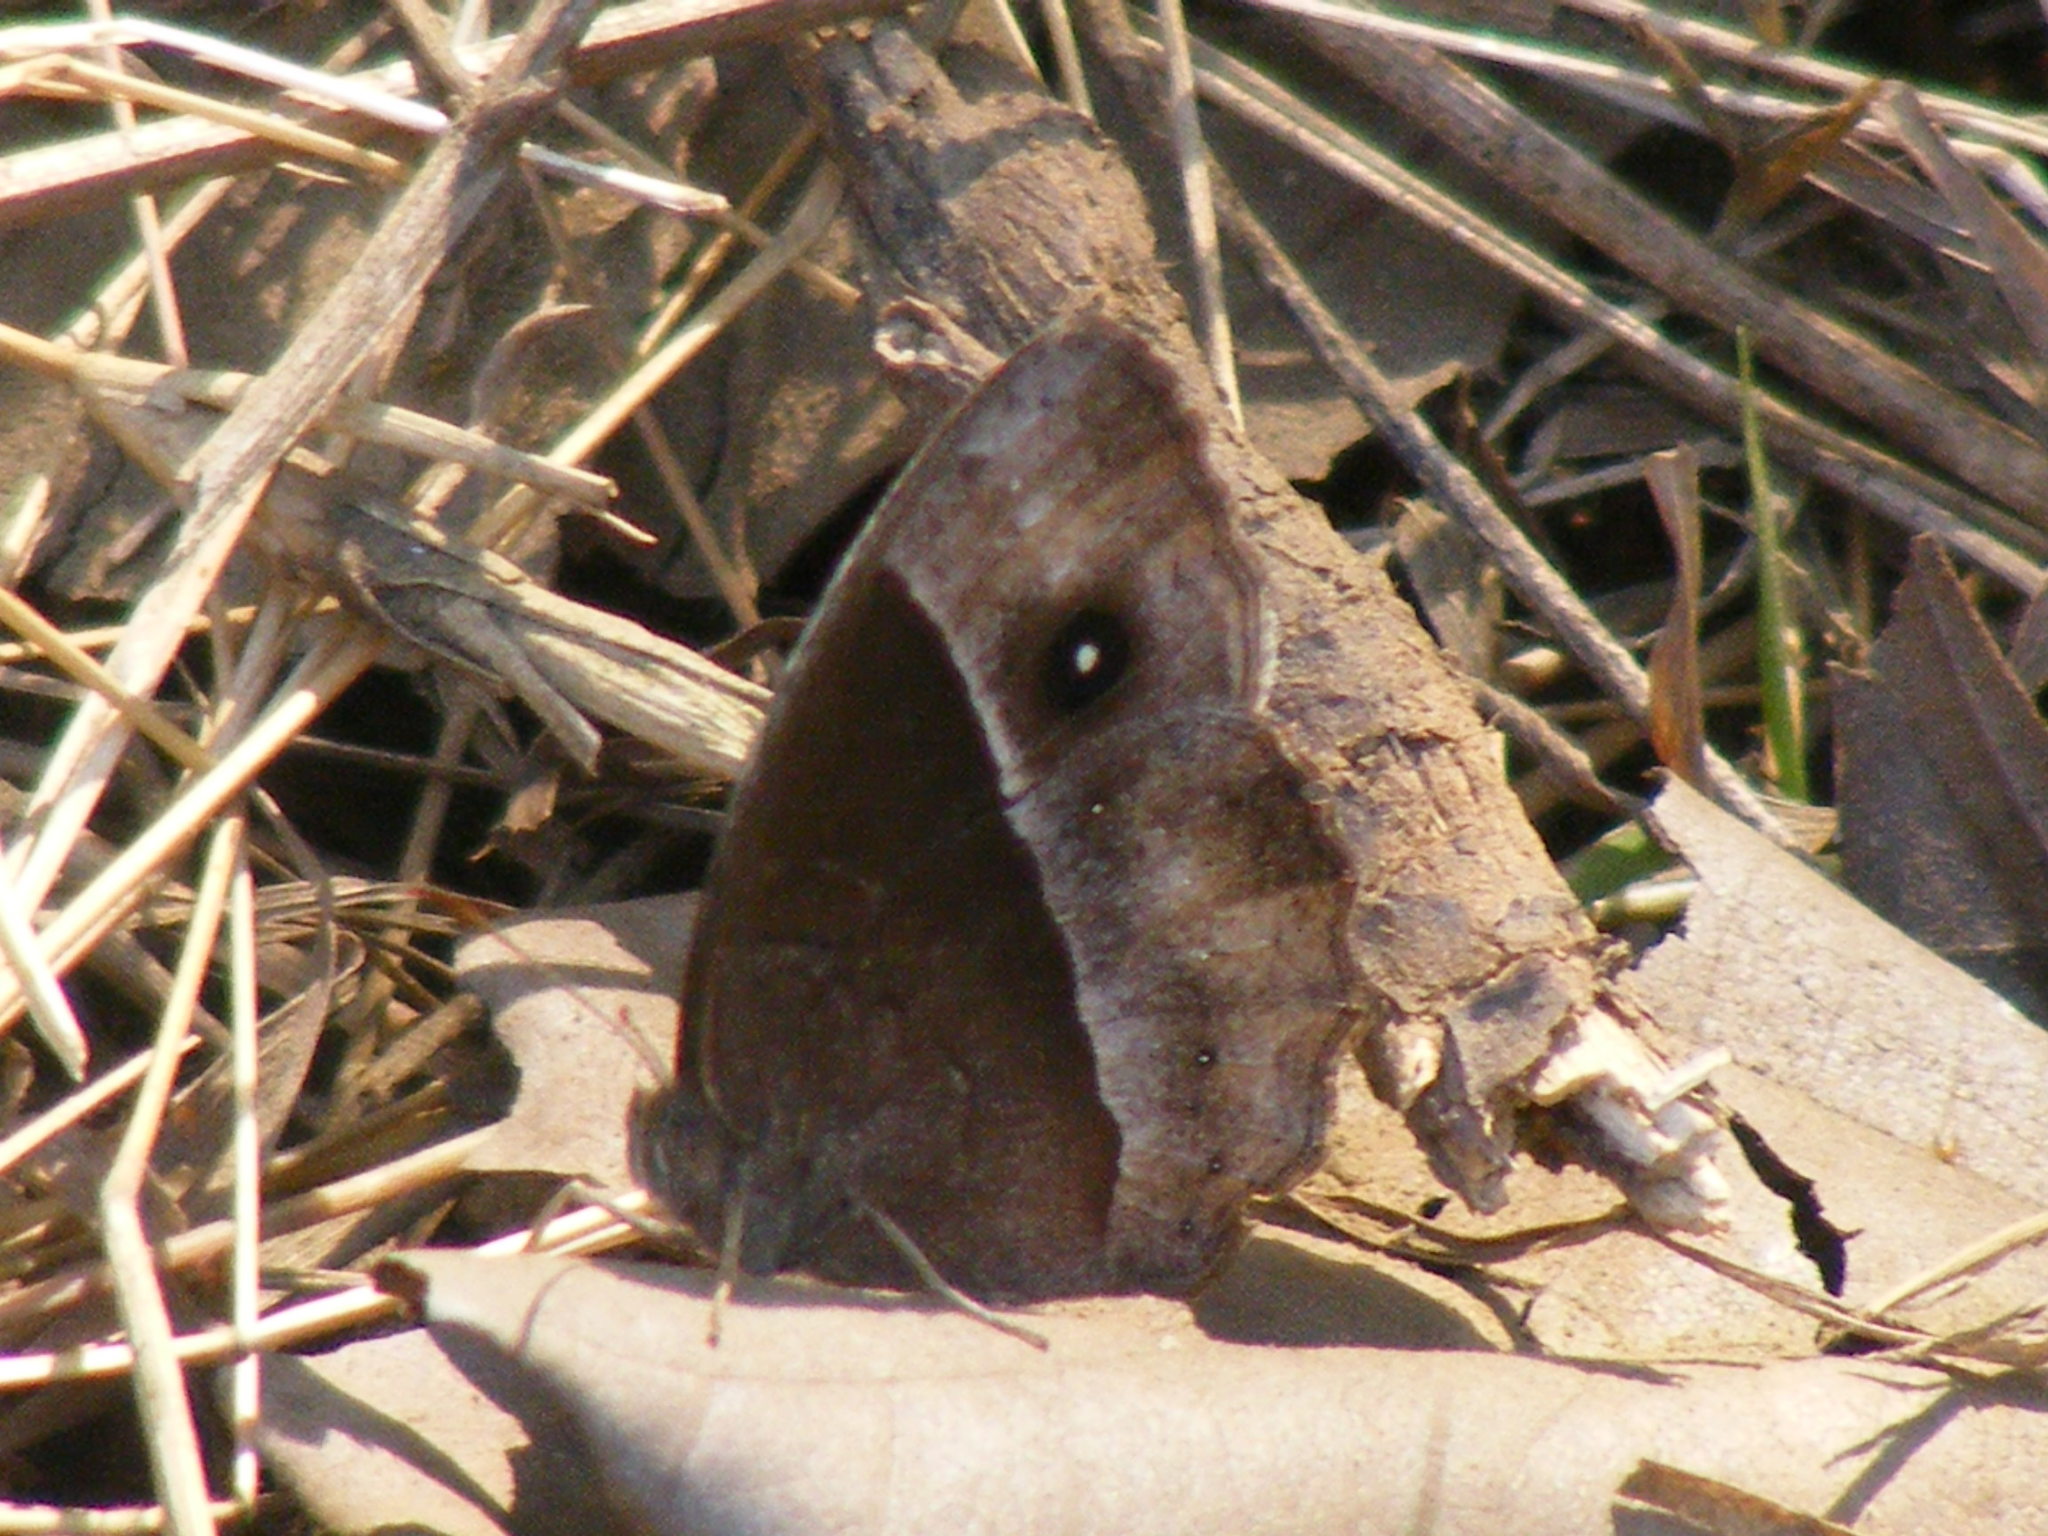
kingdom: Animalia
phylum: Arthropoda
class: Insecta
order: Lepidoptera
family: Nymphalidae
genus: Mycalesis
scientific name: Mycalesis rhacotis
